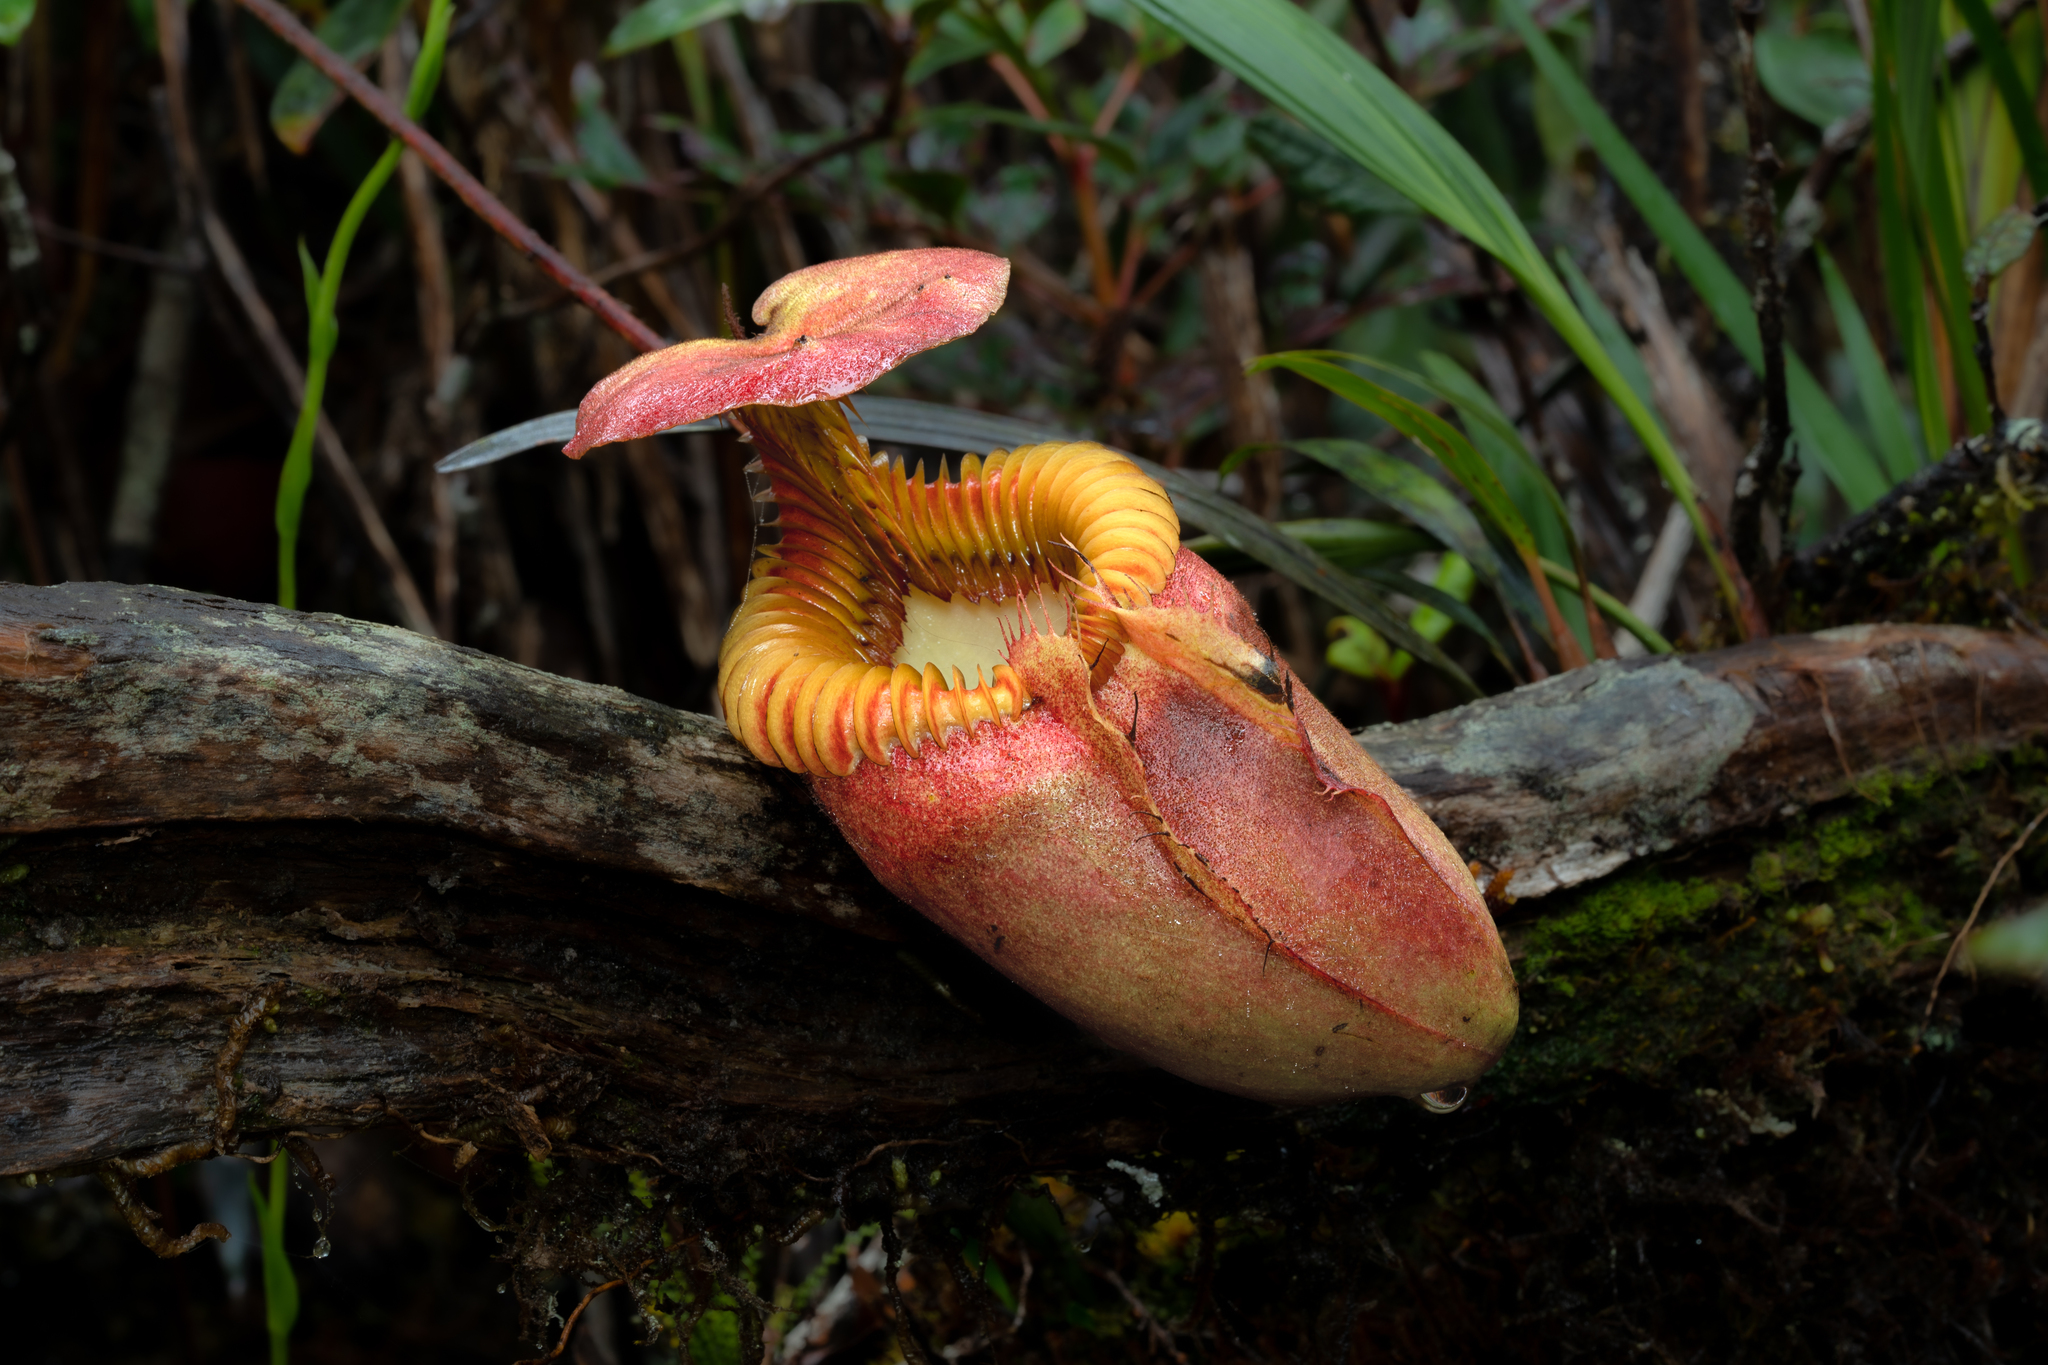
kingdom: Plantae
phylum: Tracheophyta
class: Magnoliopsida
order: Caryophyllales
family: Nepenthaceae
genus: Nepenthes
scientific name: Nepenthes villosa
